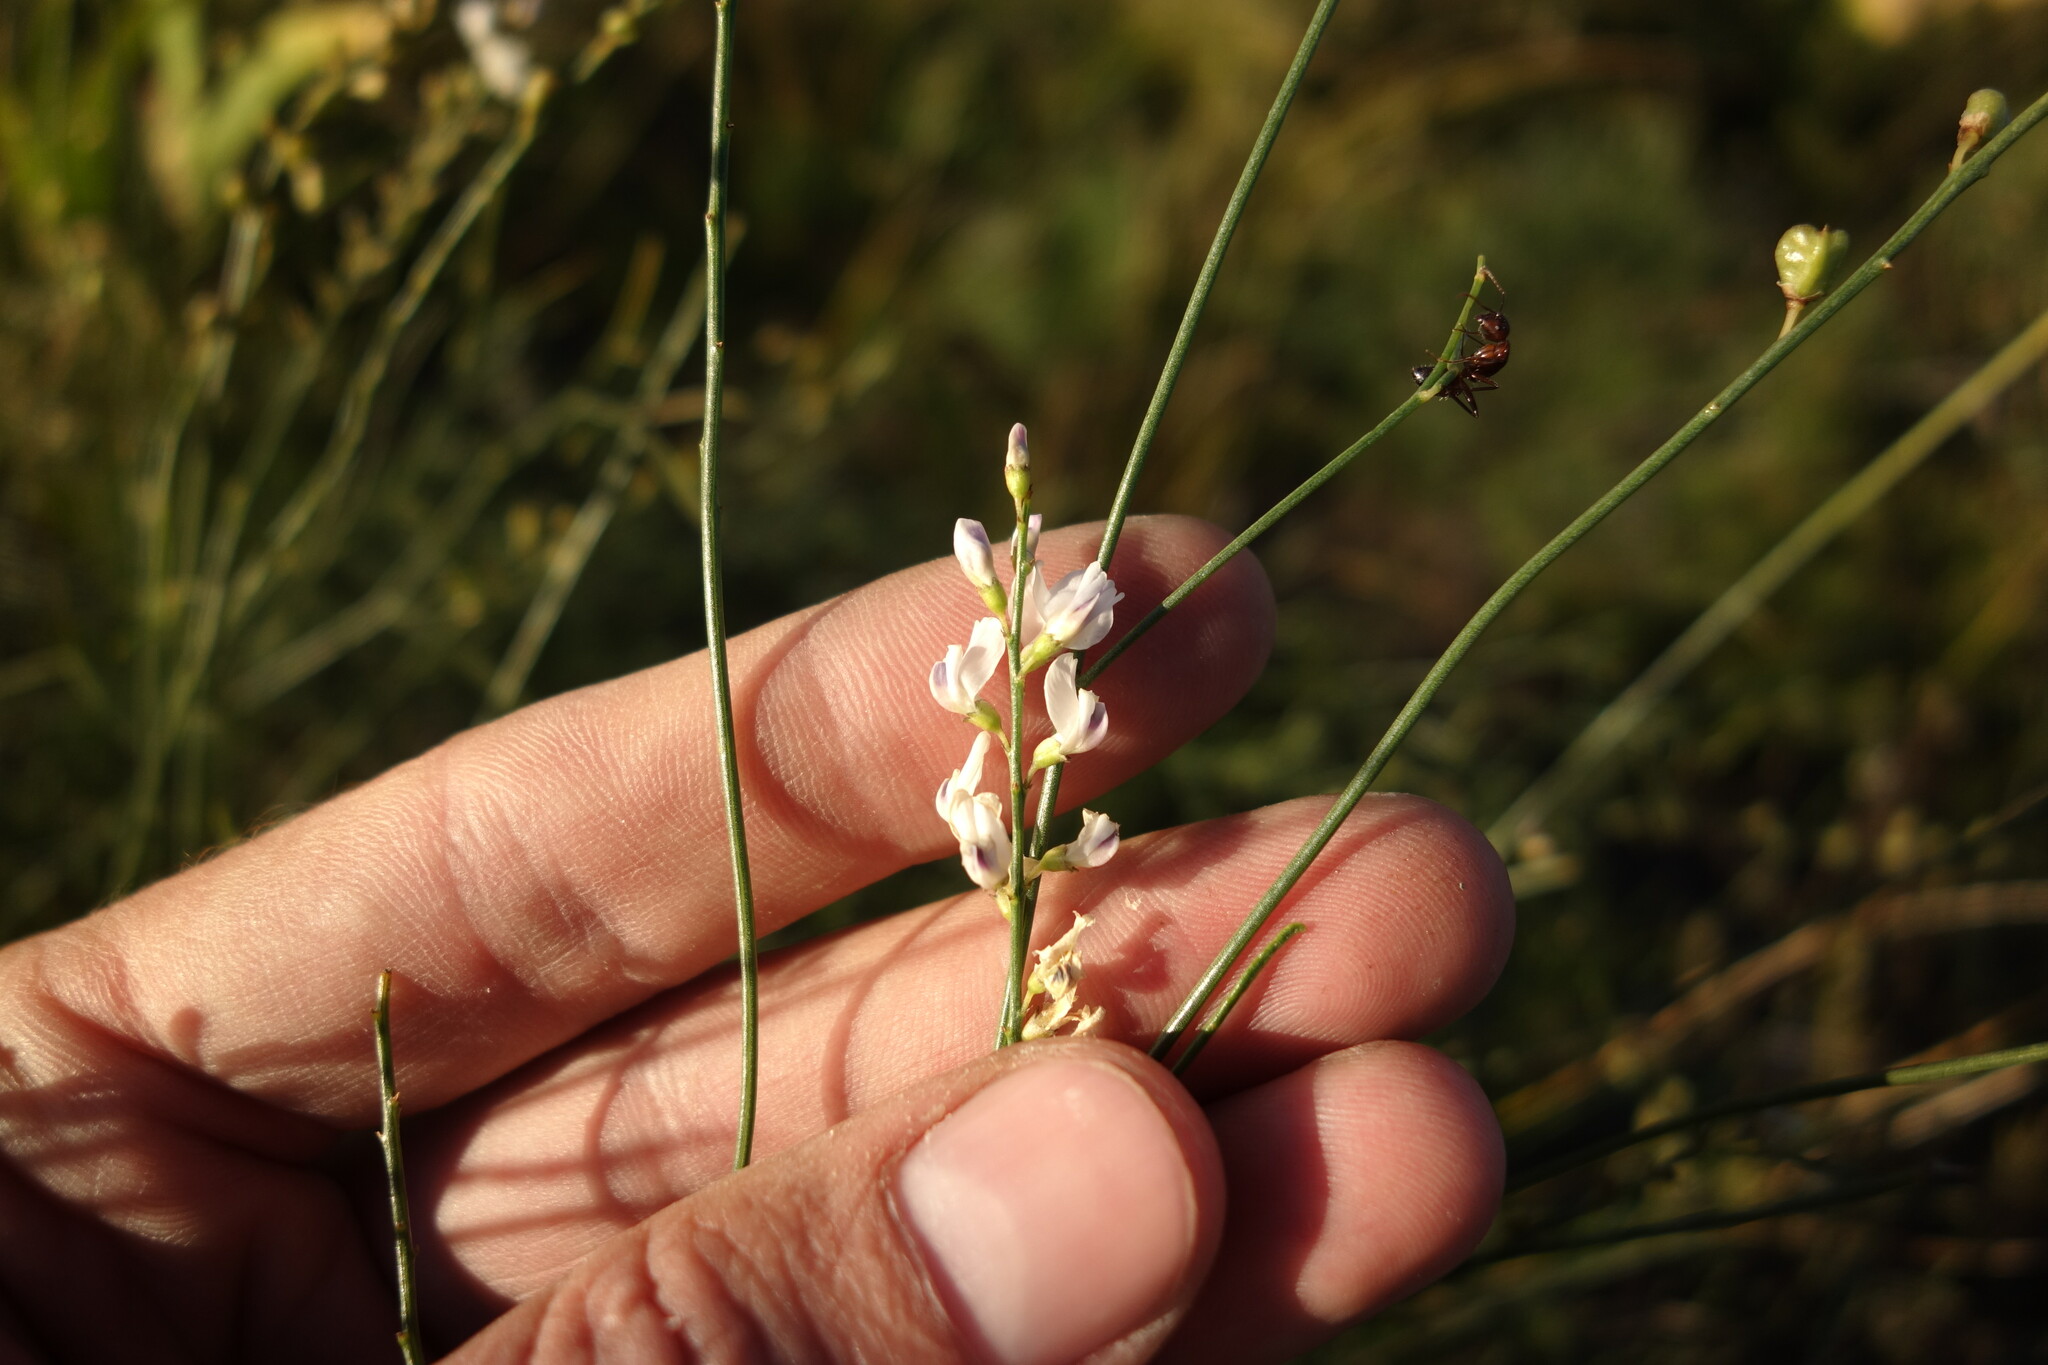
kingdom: Plantae
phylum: Tracheophyta
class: Magnoliopsida
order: Fabales
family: Fabaceae
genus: Astragalus
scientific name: Astragalus melilotoides
